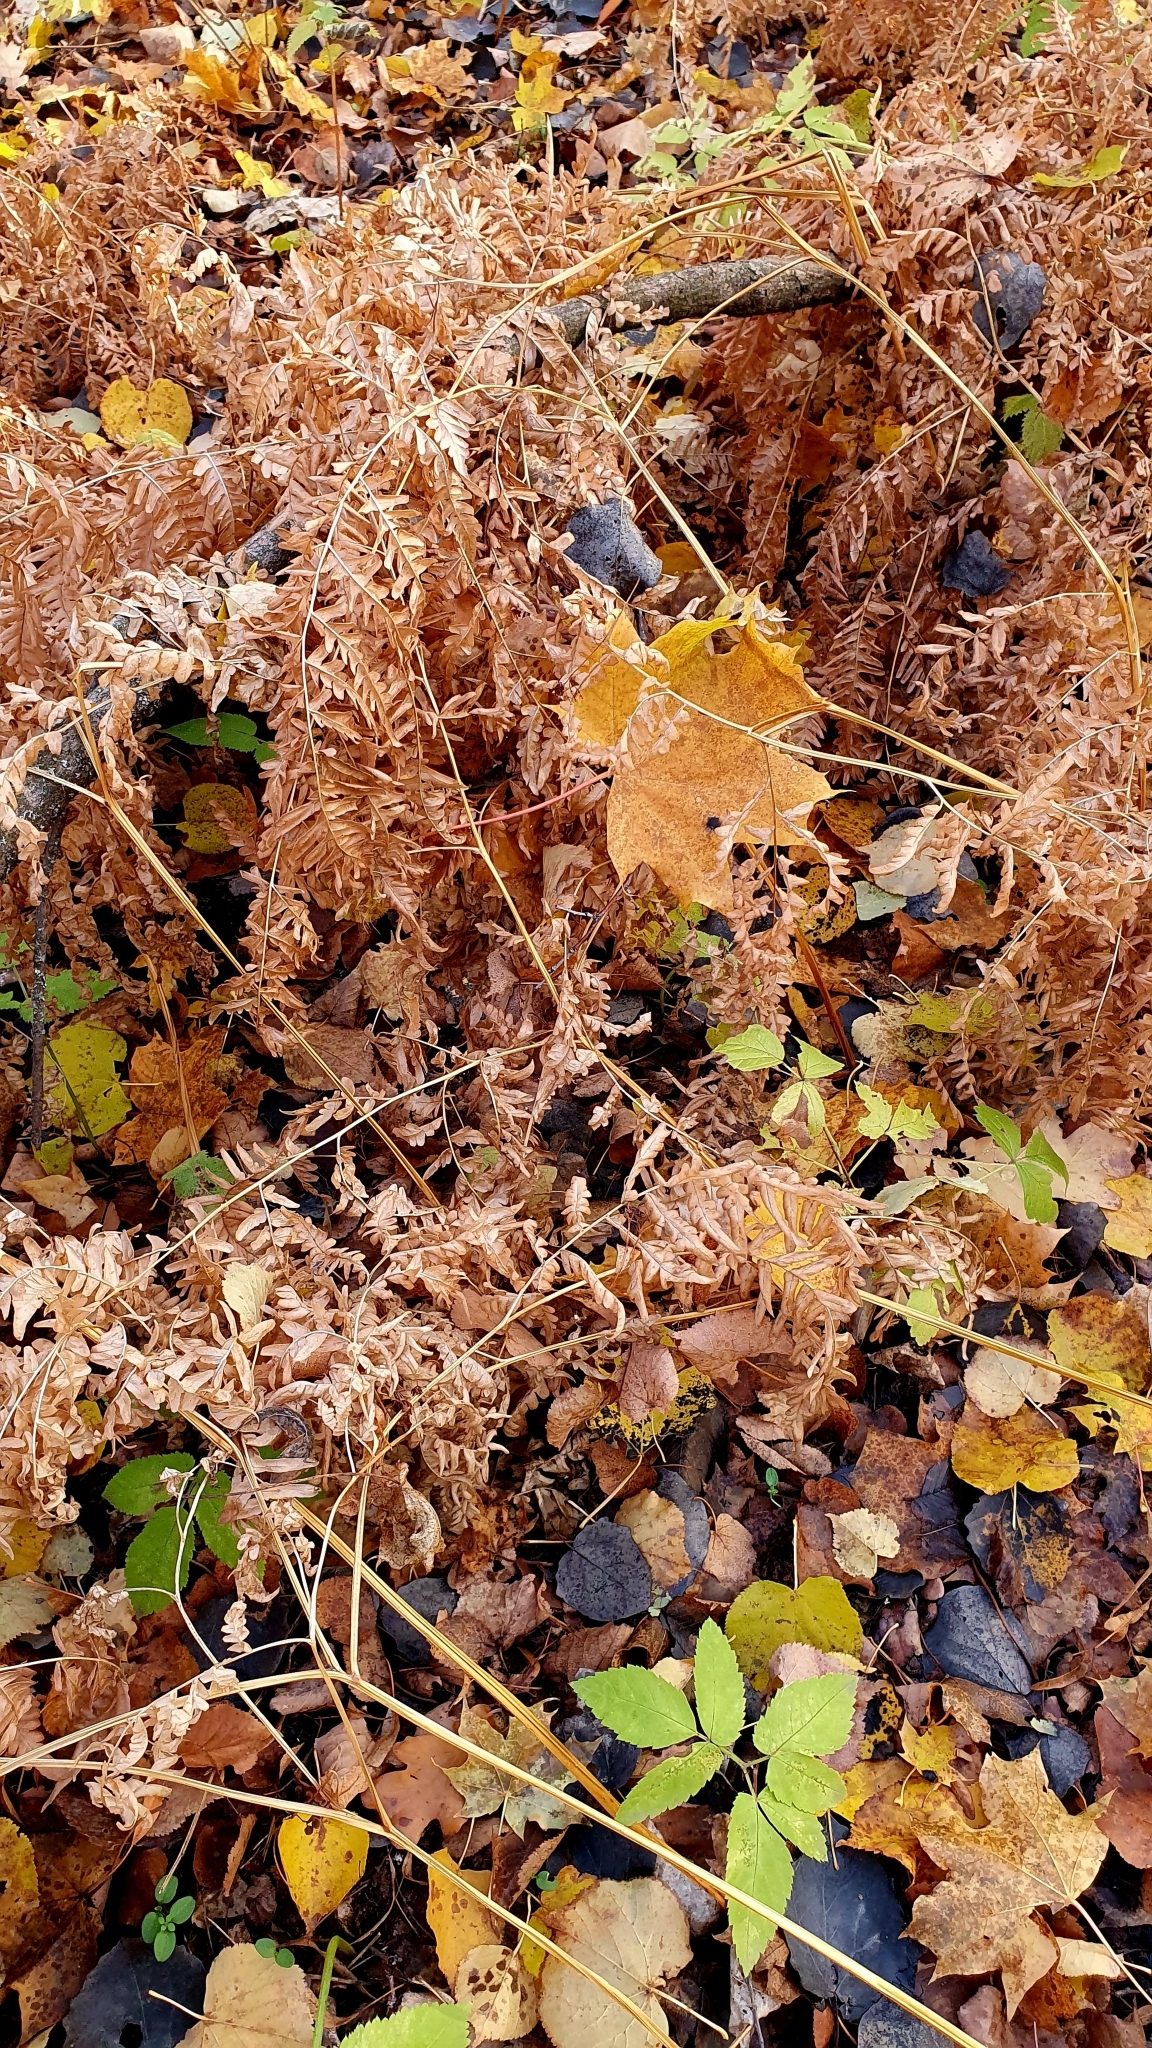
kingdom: Plantae
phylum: Tracheophyta
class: Polypodiopsida
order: Polypodiales
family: Dennstaedtiaceae
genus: Pteridium
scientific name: Pteridium aquilinum
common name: Bracken
